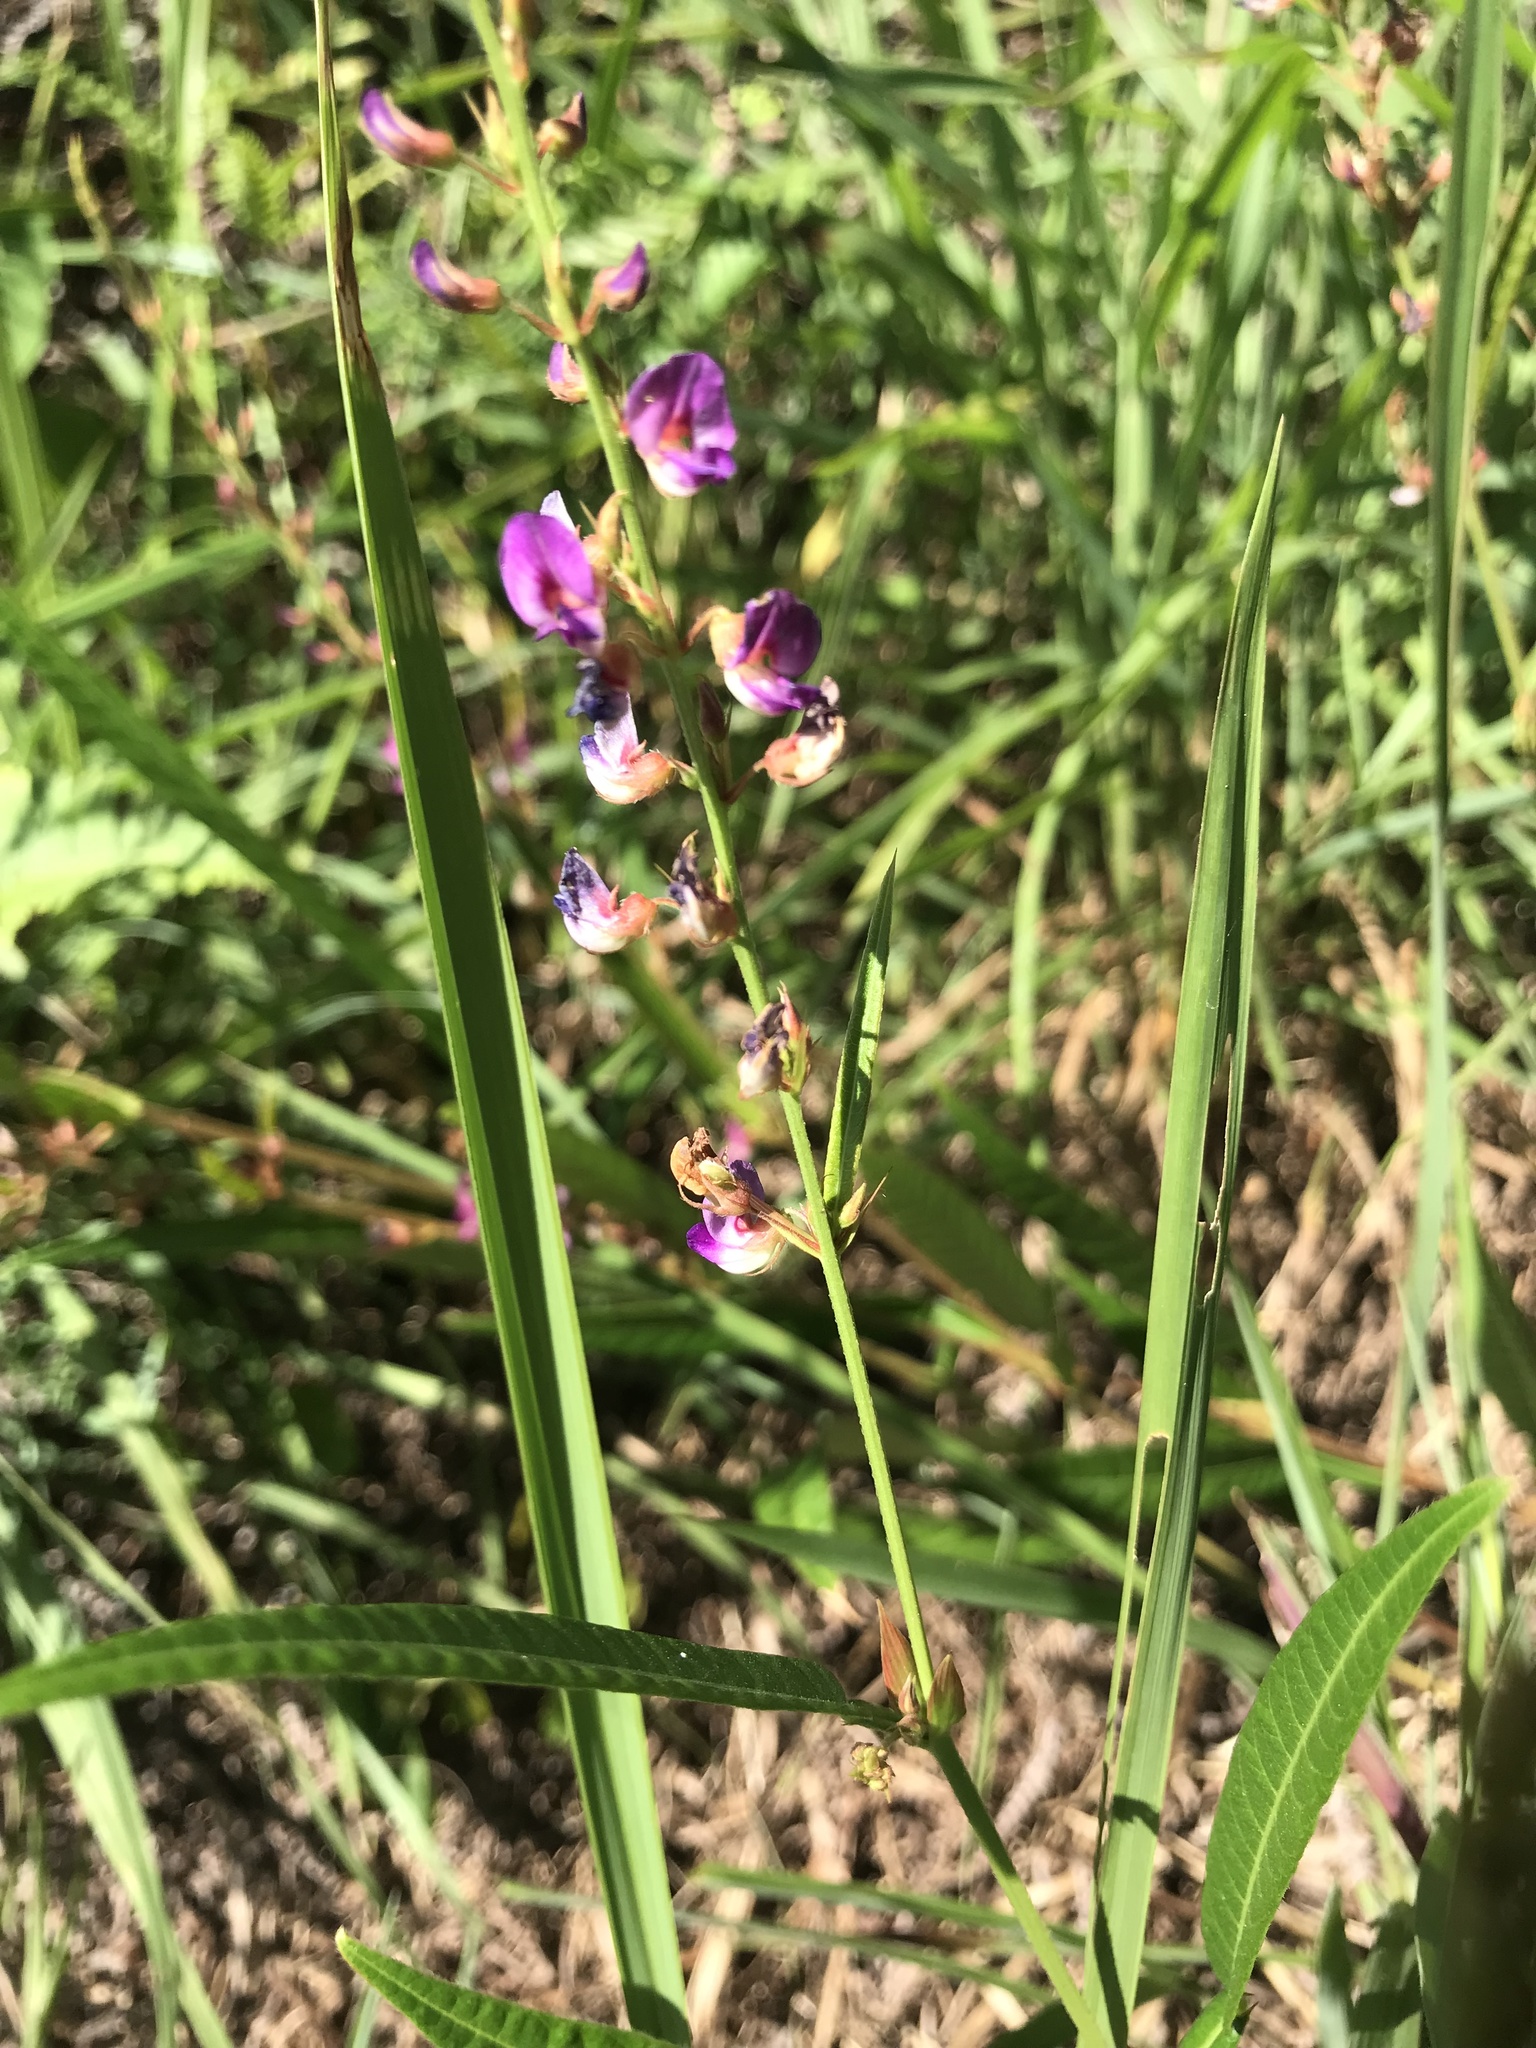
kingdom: Plantae
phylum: Tracheophyta
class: Magnoliopsida
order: Fabales
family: Fabaceae
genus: Tadehagi
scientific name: Tadehagi triquetrum
